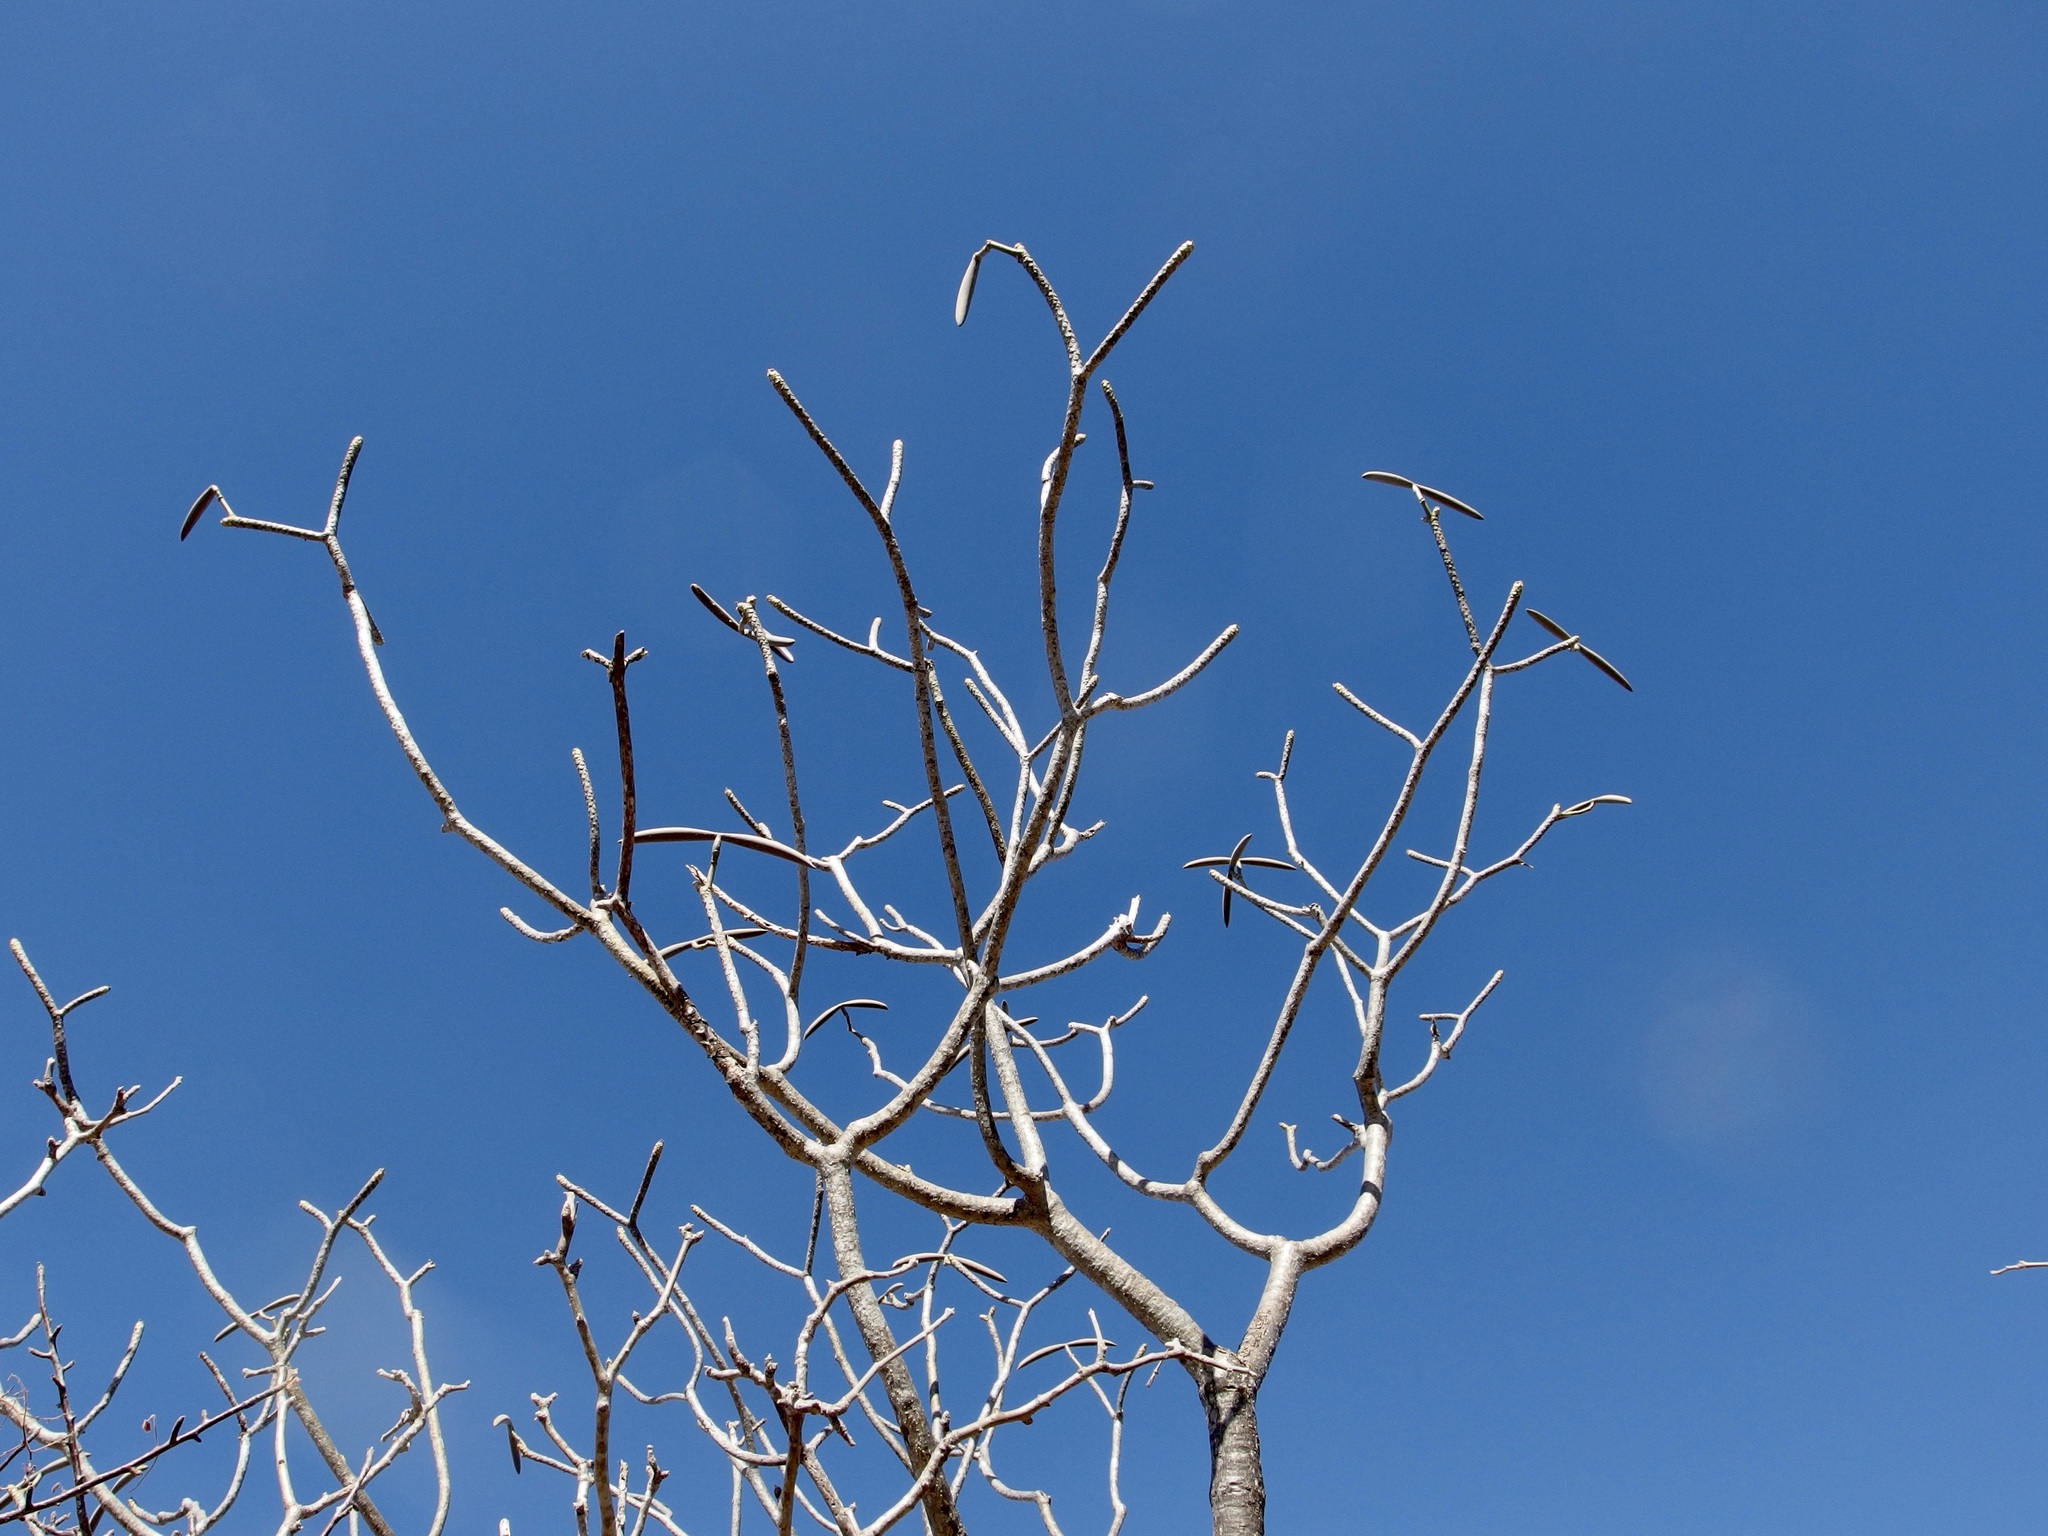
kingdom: Plantae
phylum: Tracheophyta
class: Magnoliopsida
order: Gentianales
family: Apocynaceae
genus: Plumeria
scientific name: Plumeria rubra
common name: Pagoda-tree
